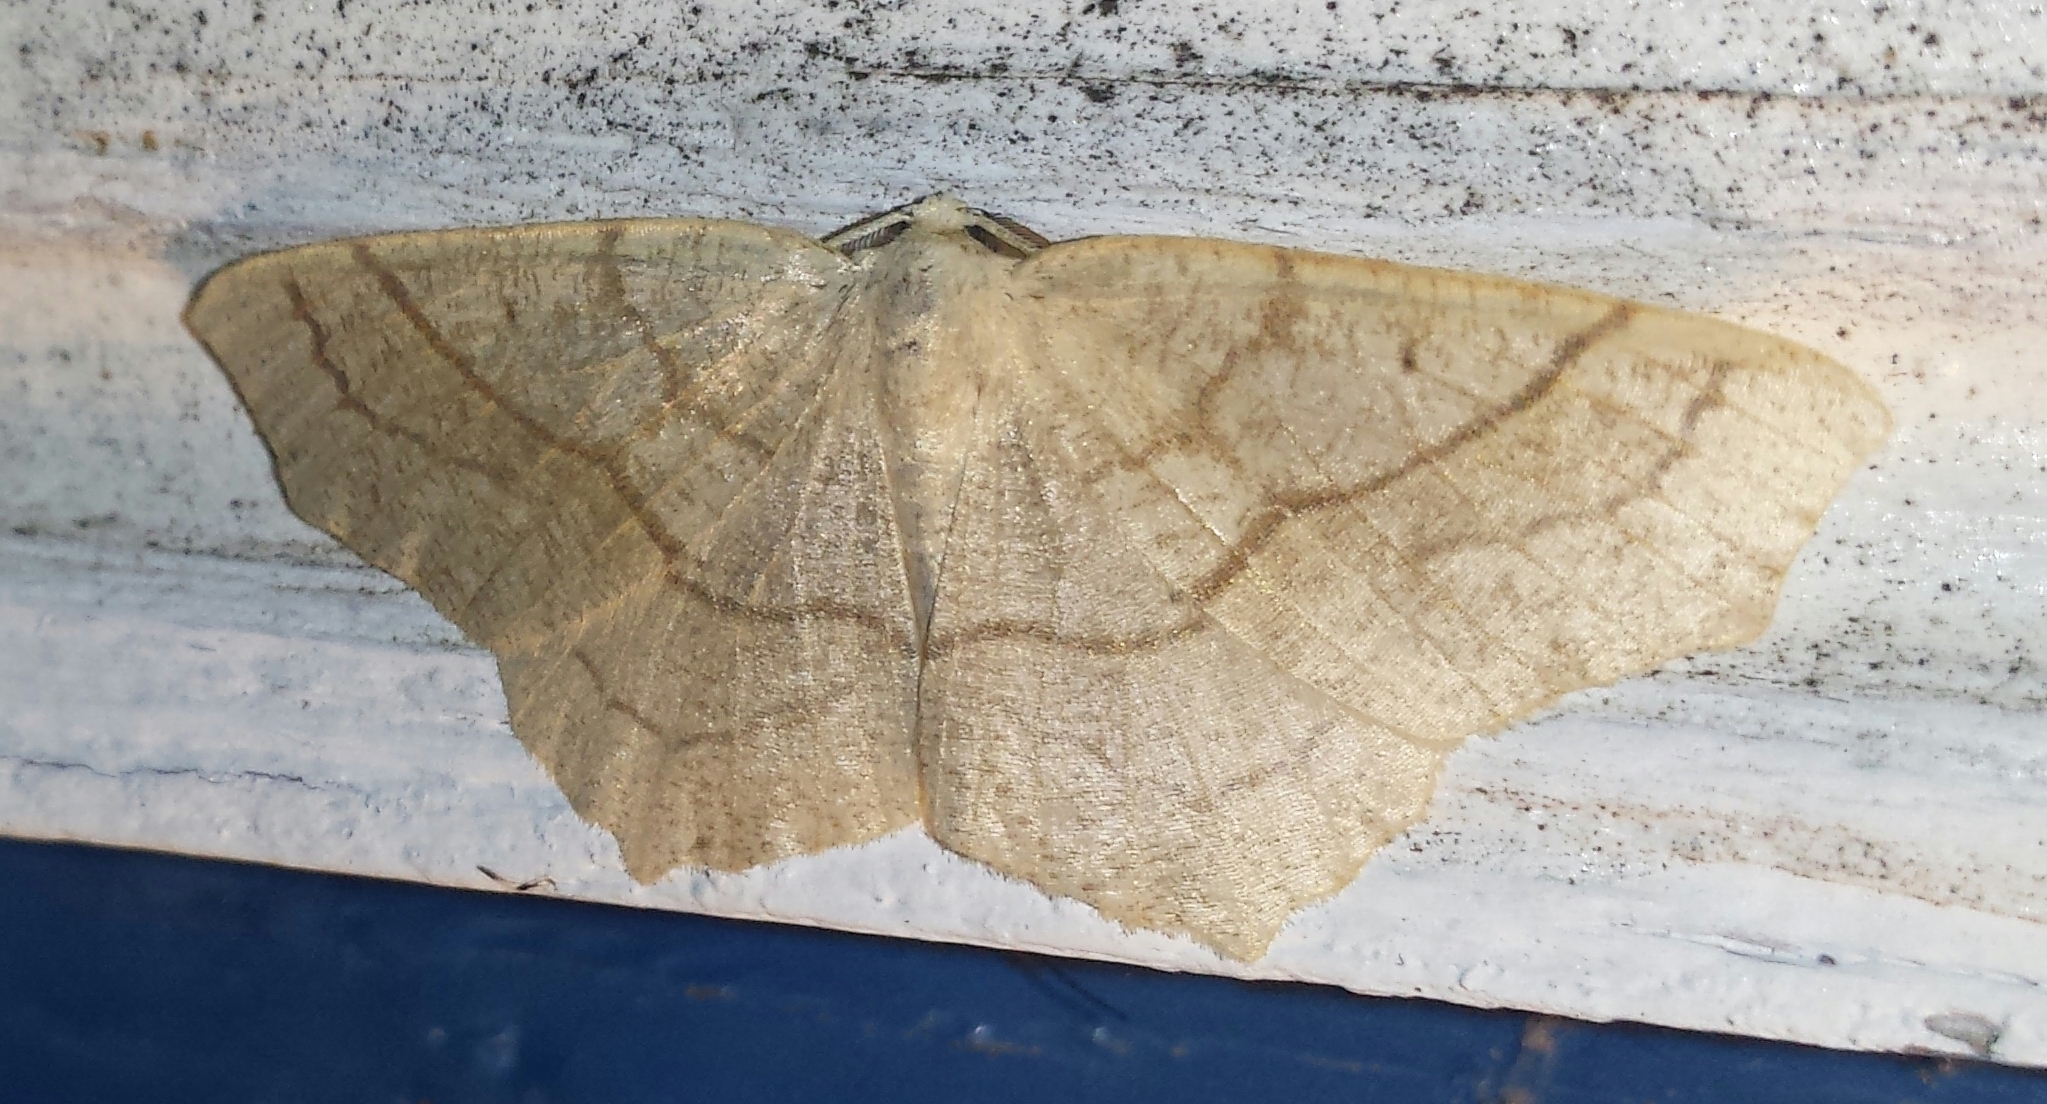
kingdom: Animalia
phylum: Arthropoda
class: Insecta
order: Lepidoptera
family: Geometridae
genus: Besma
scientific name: Besma quercivoraria
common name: Oak besma
